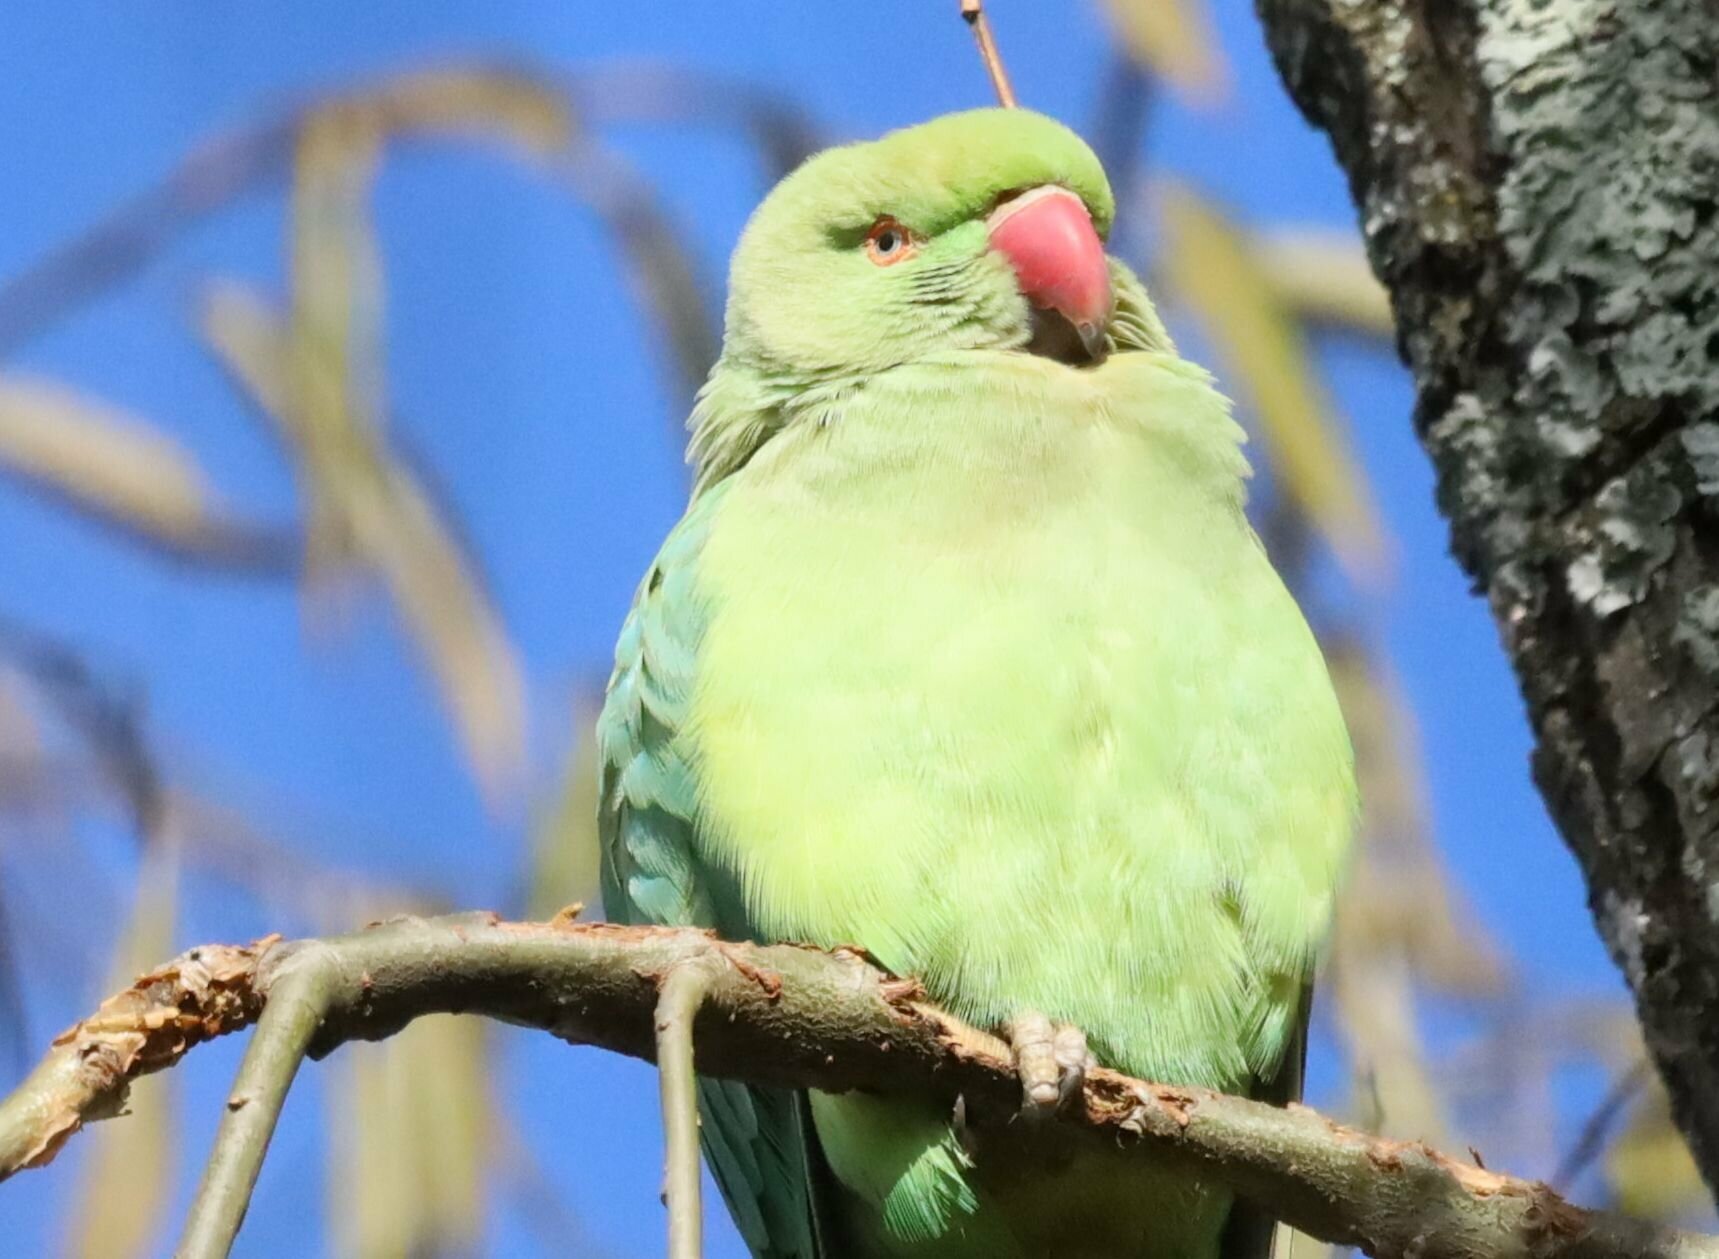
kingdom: Animalia
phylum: Chordata
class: Aves
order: Psittaciformes
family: Psittacidae
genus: Psittacula
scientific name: Psittacula krameri
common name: Rose-ringed parakeet
